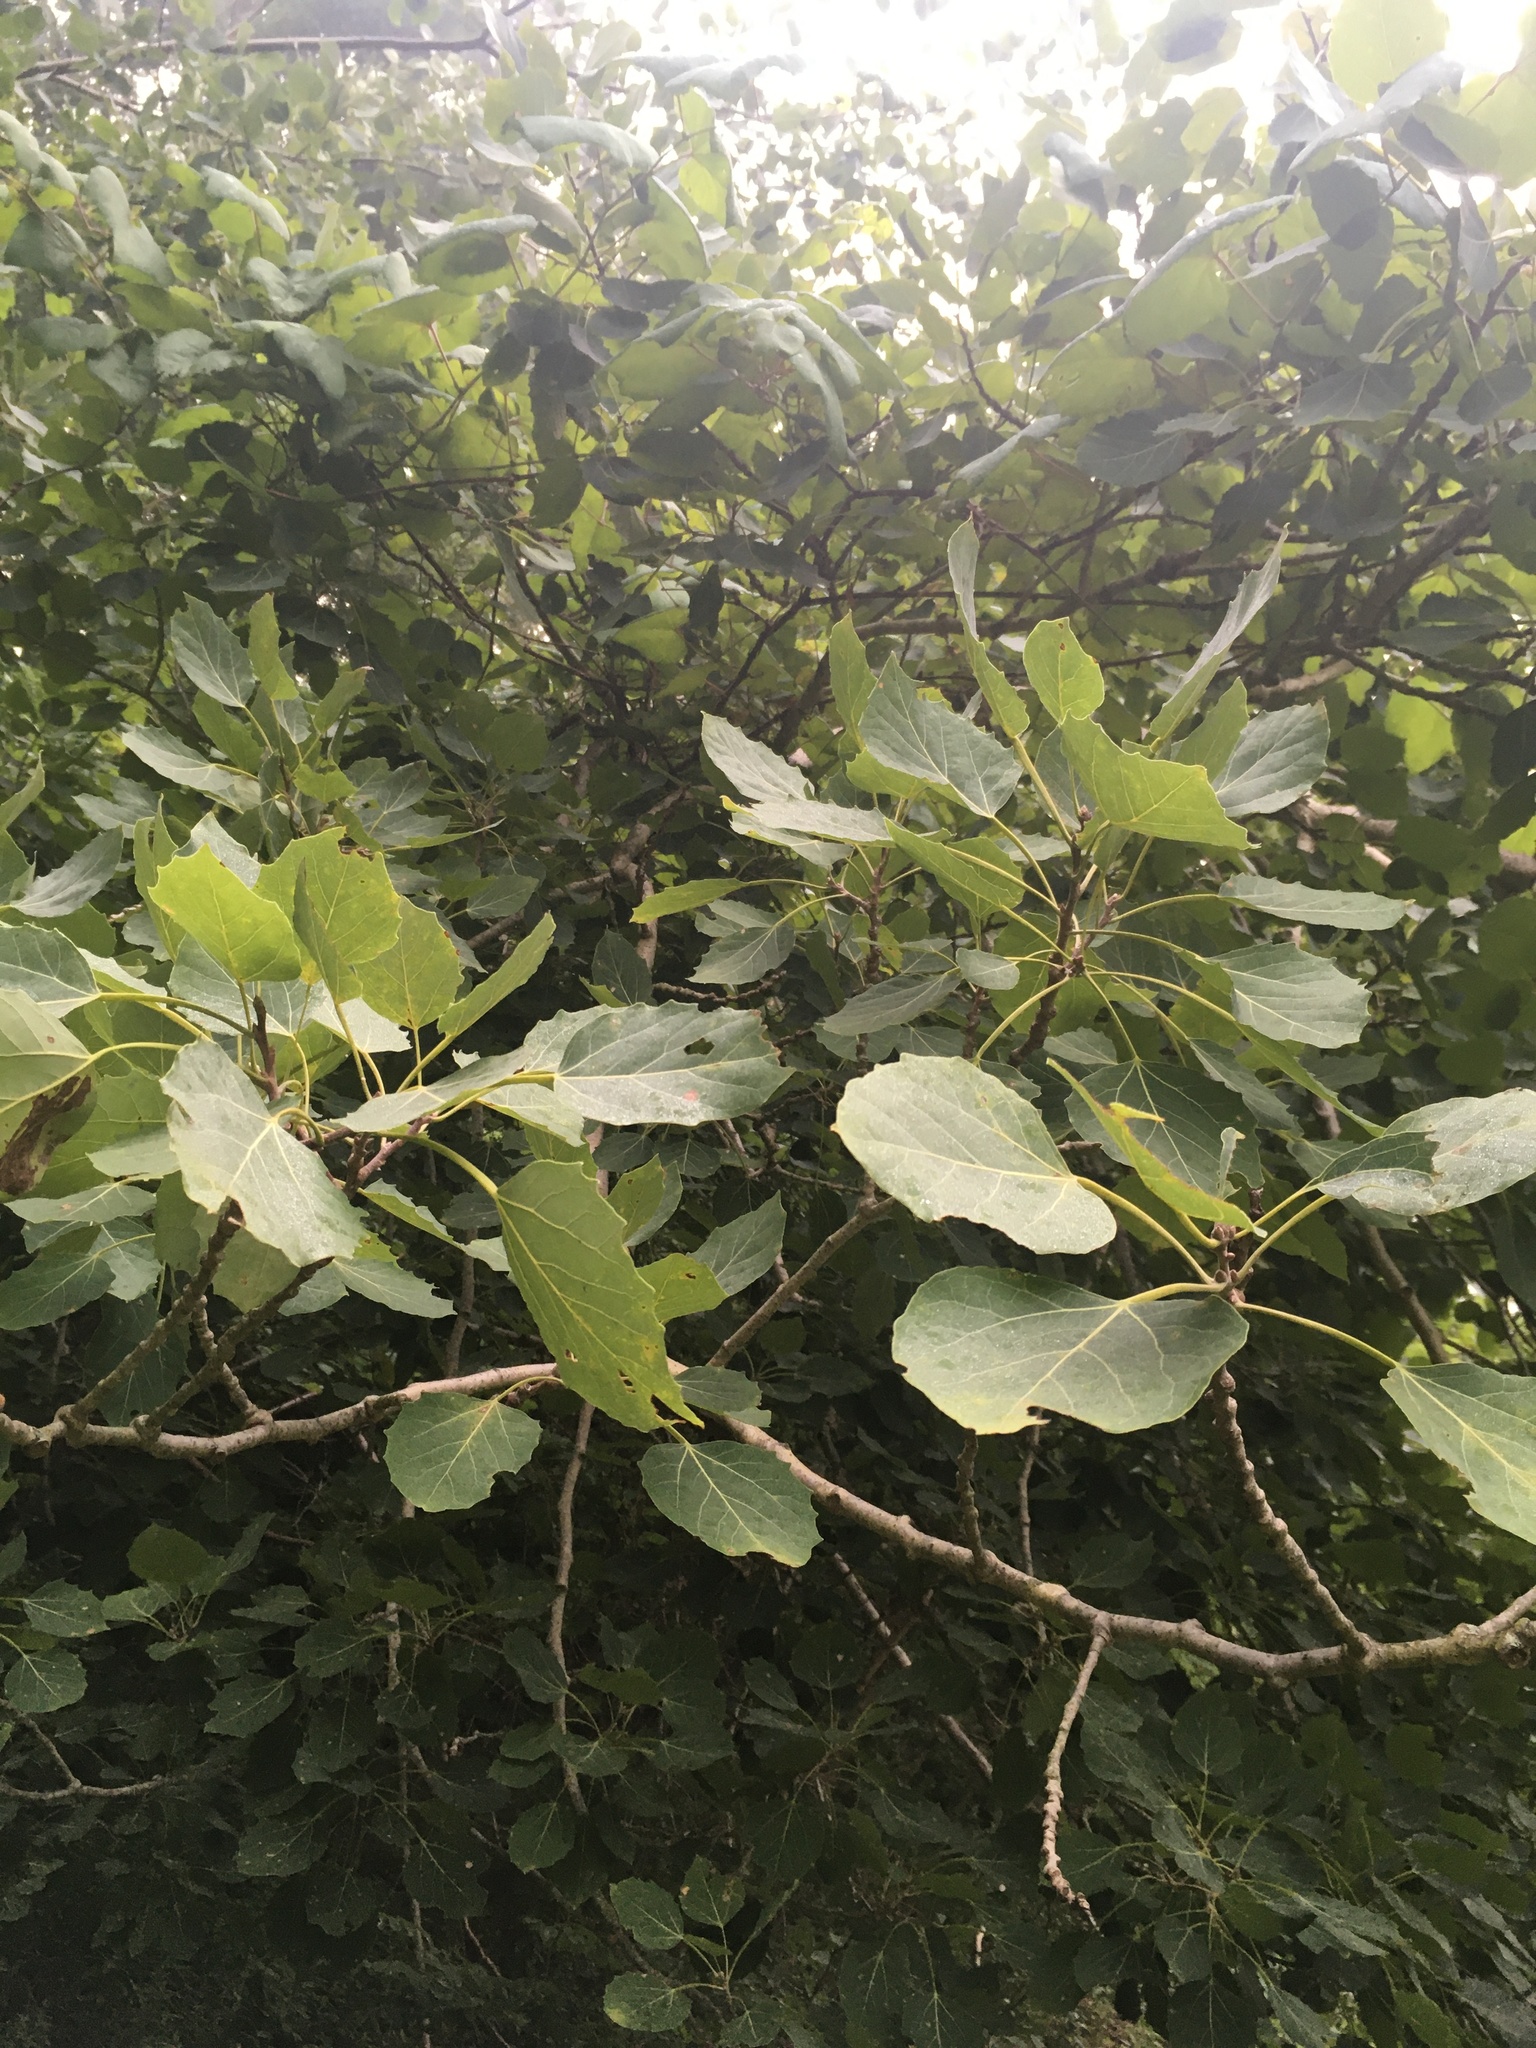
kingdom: Plantae
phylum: Tracheophyta
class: Magnoliopsida
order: Malpighiales
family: Salicaceae
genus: Populus
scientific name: Populus grandidentata
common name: Bigtooth aspen
